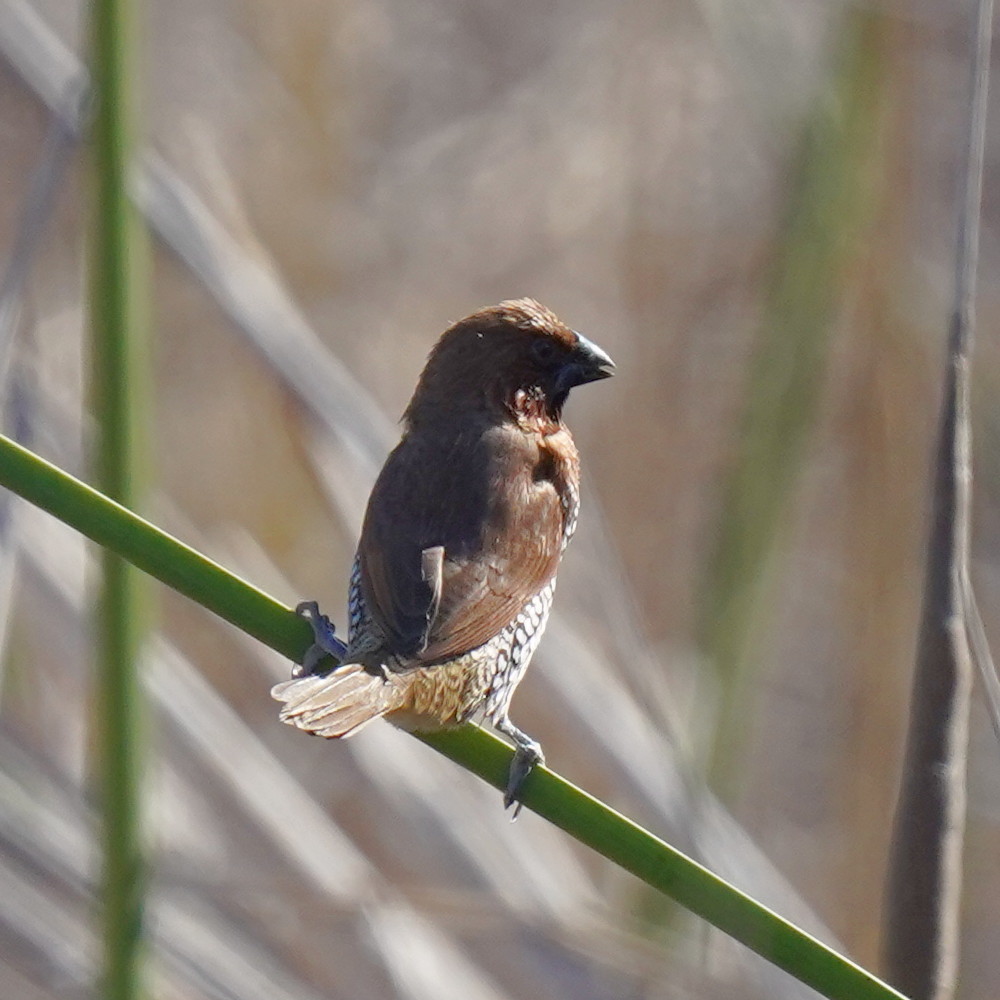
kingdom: Animalia
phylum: Chordata
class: Aves
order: Passeriformes
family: Estrildidae
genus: Lonchura
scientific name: Lonchura punctulata
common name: Scaly-breasted munia
